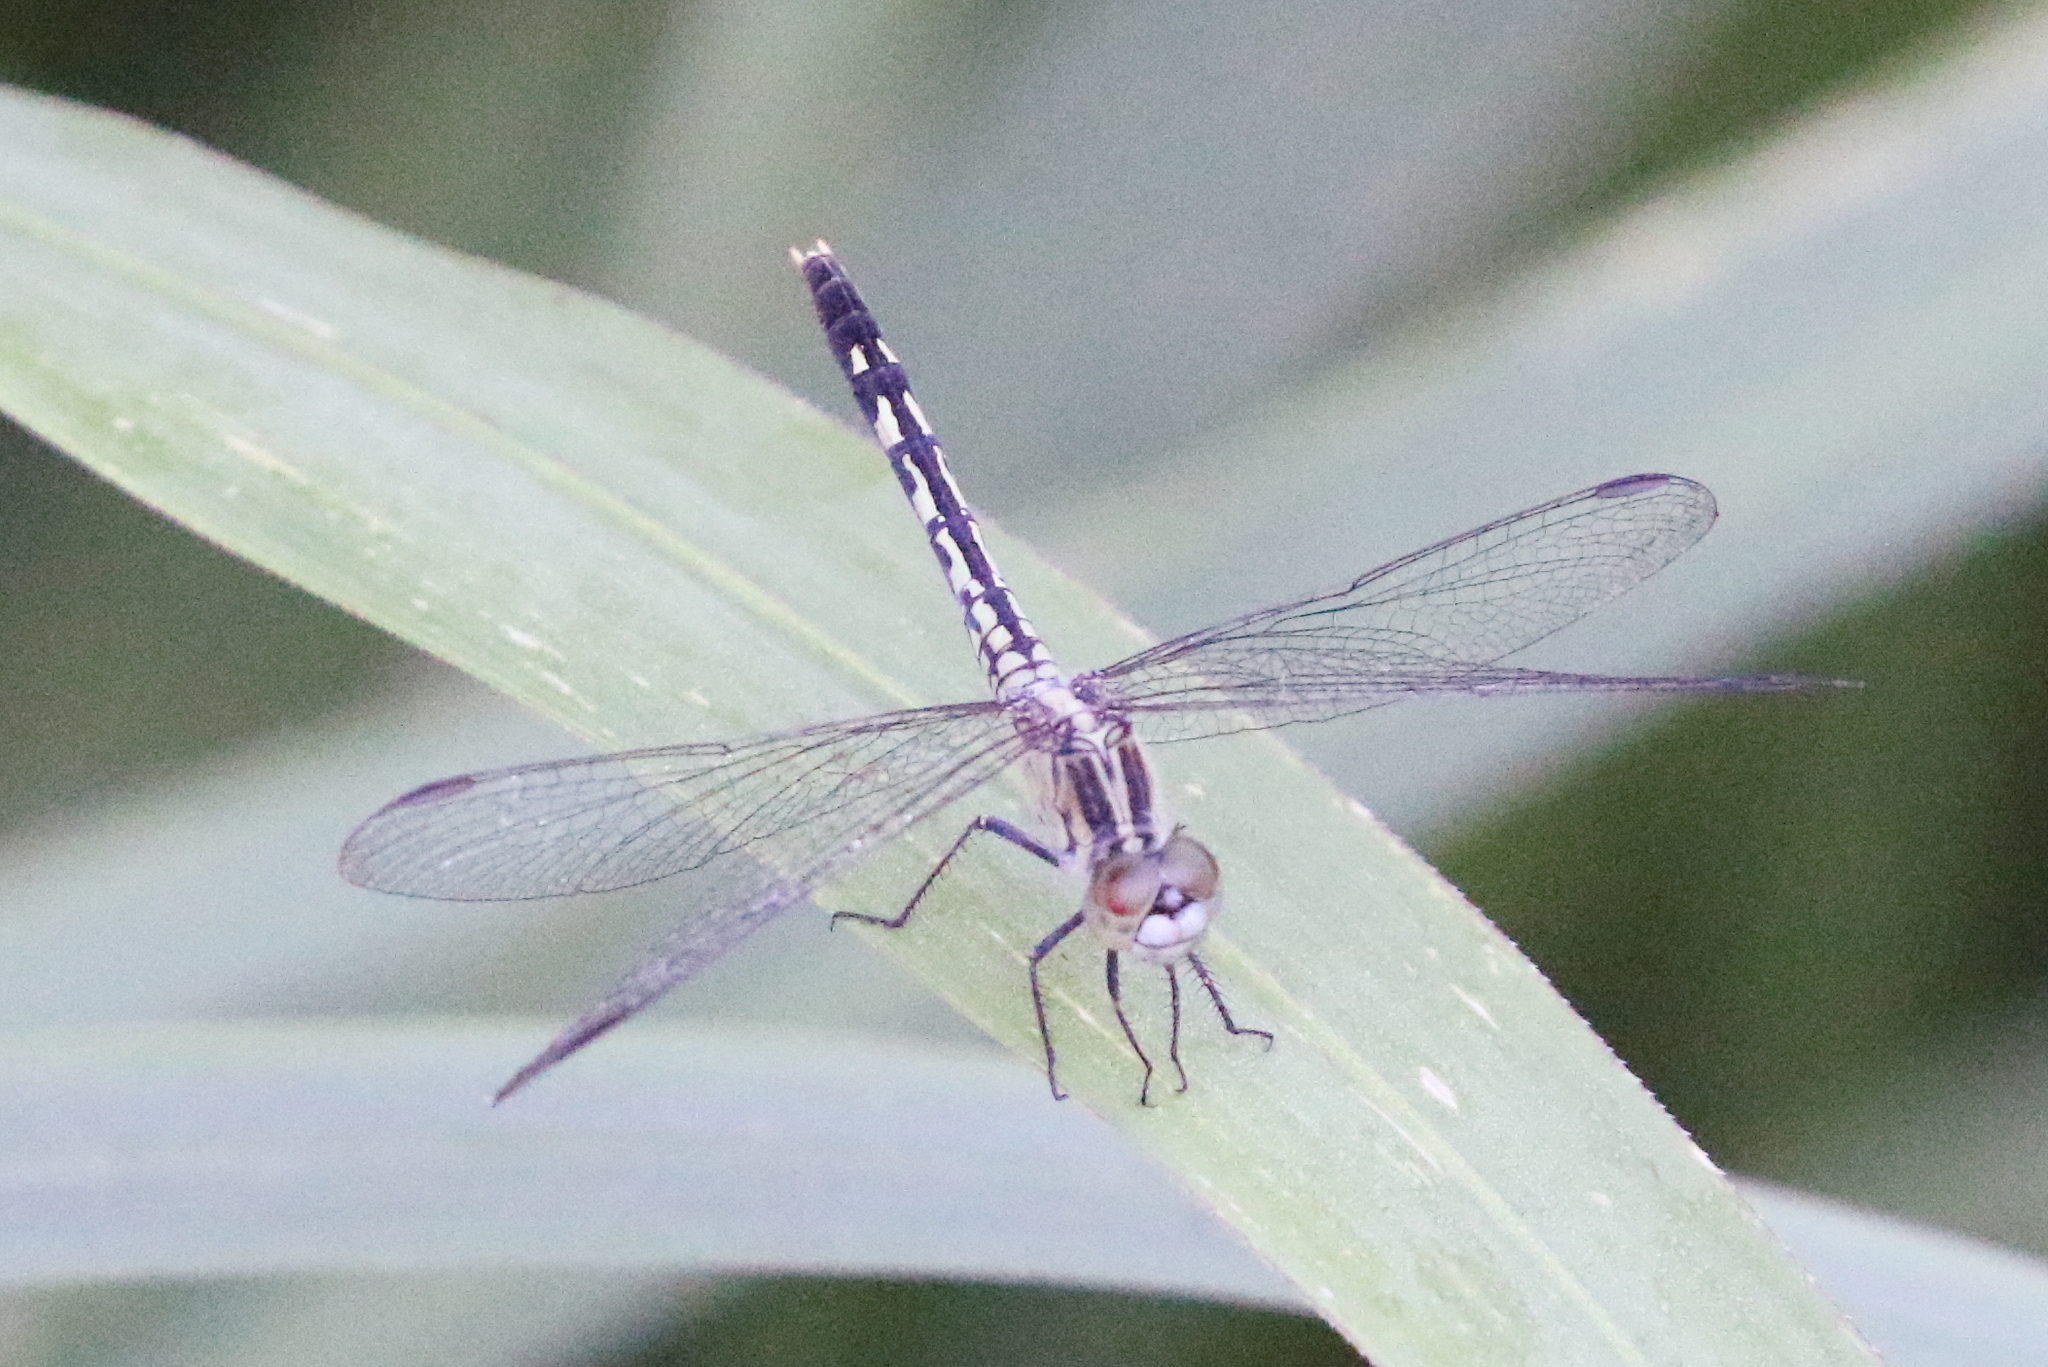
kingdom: Animalia
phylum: Arthropoda
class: Insecta
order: Odonata
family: Libellulidae
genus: Diplacodes
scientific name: Diplacodes trivialis
